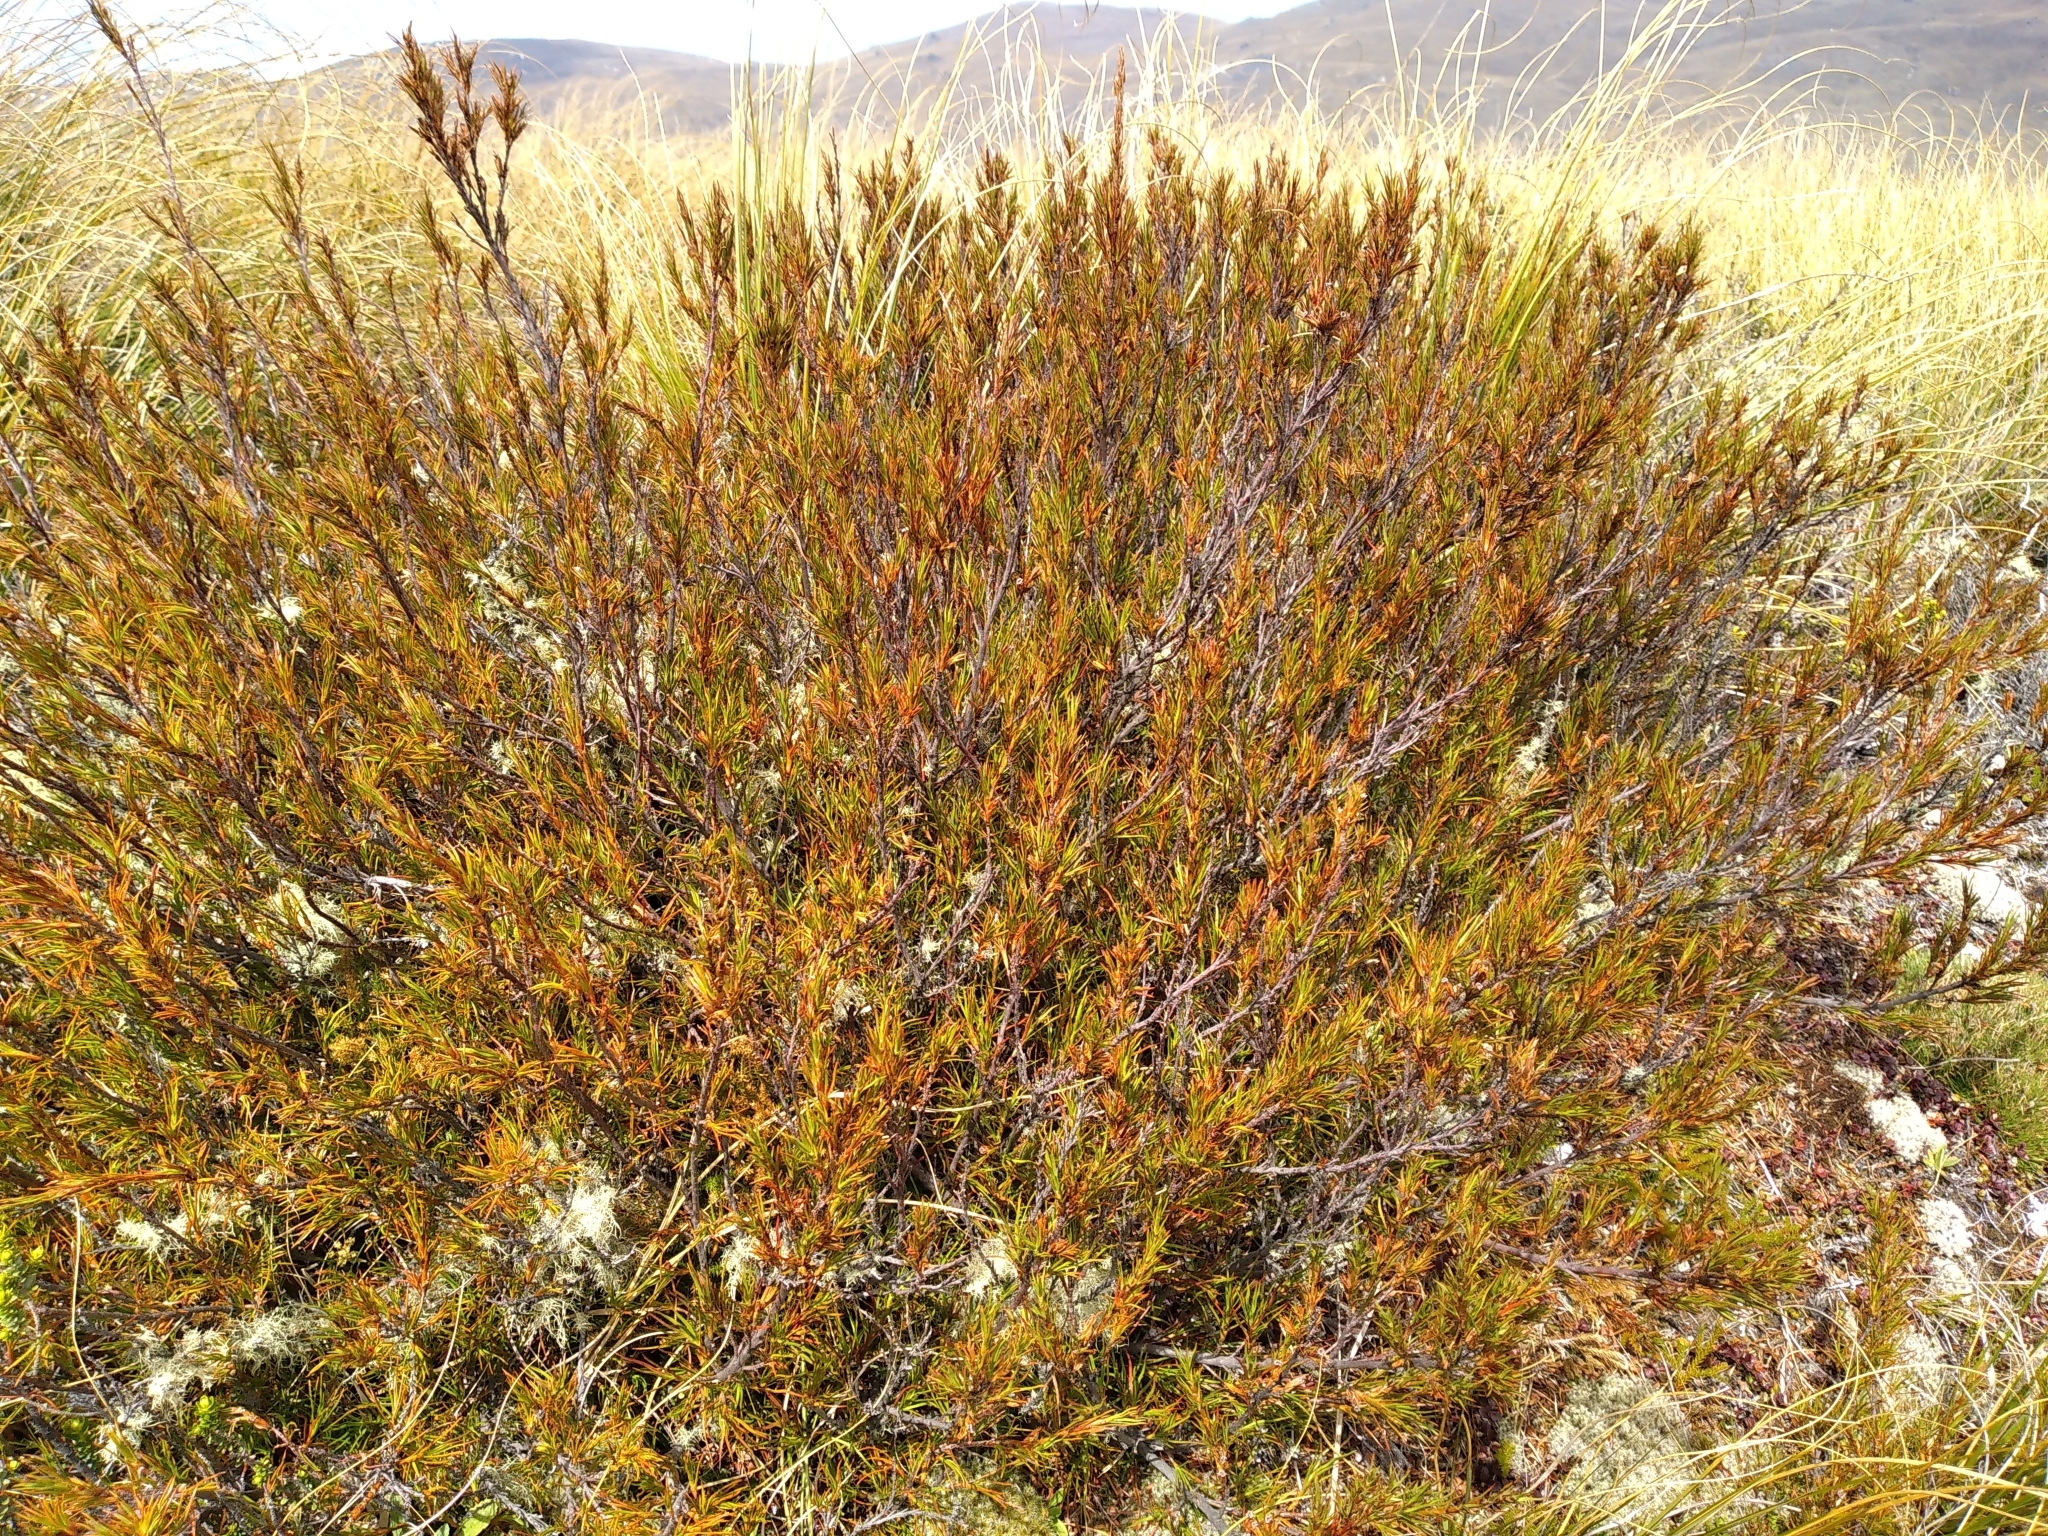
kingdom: Plantae
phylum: Tracheophyta
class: Magnoliopsida
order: Ericales
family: Ericaceae
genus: Dracophyllum
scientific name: Dracophyllum rosmarinifolium
